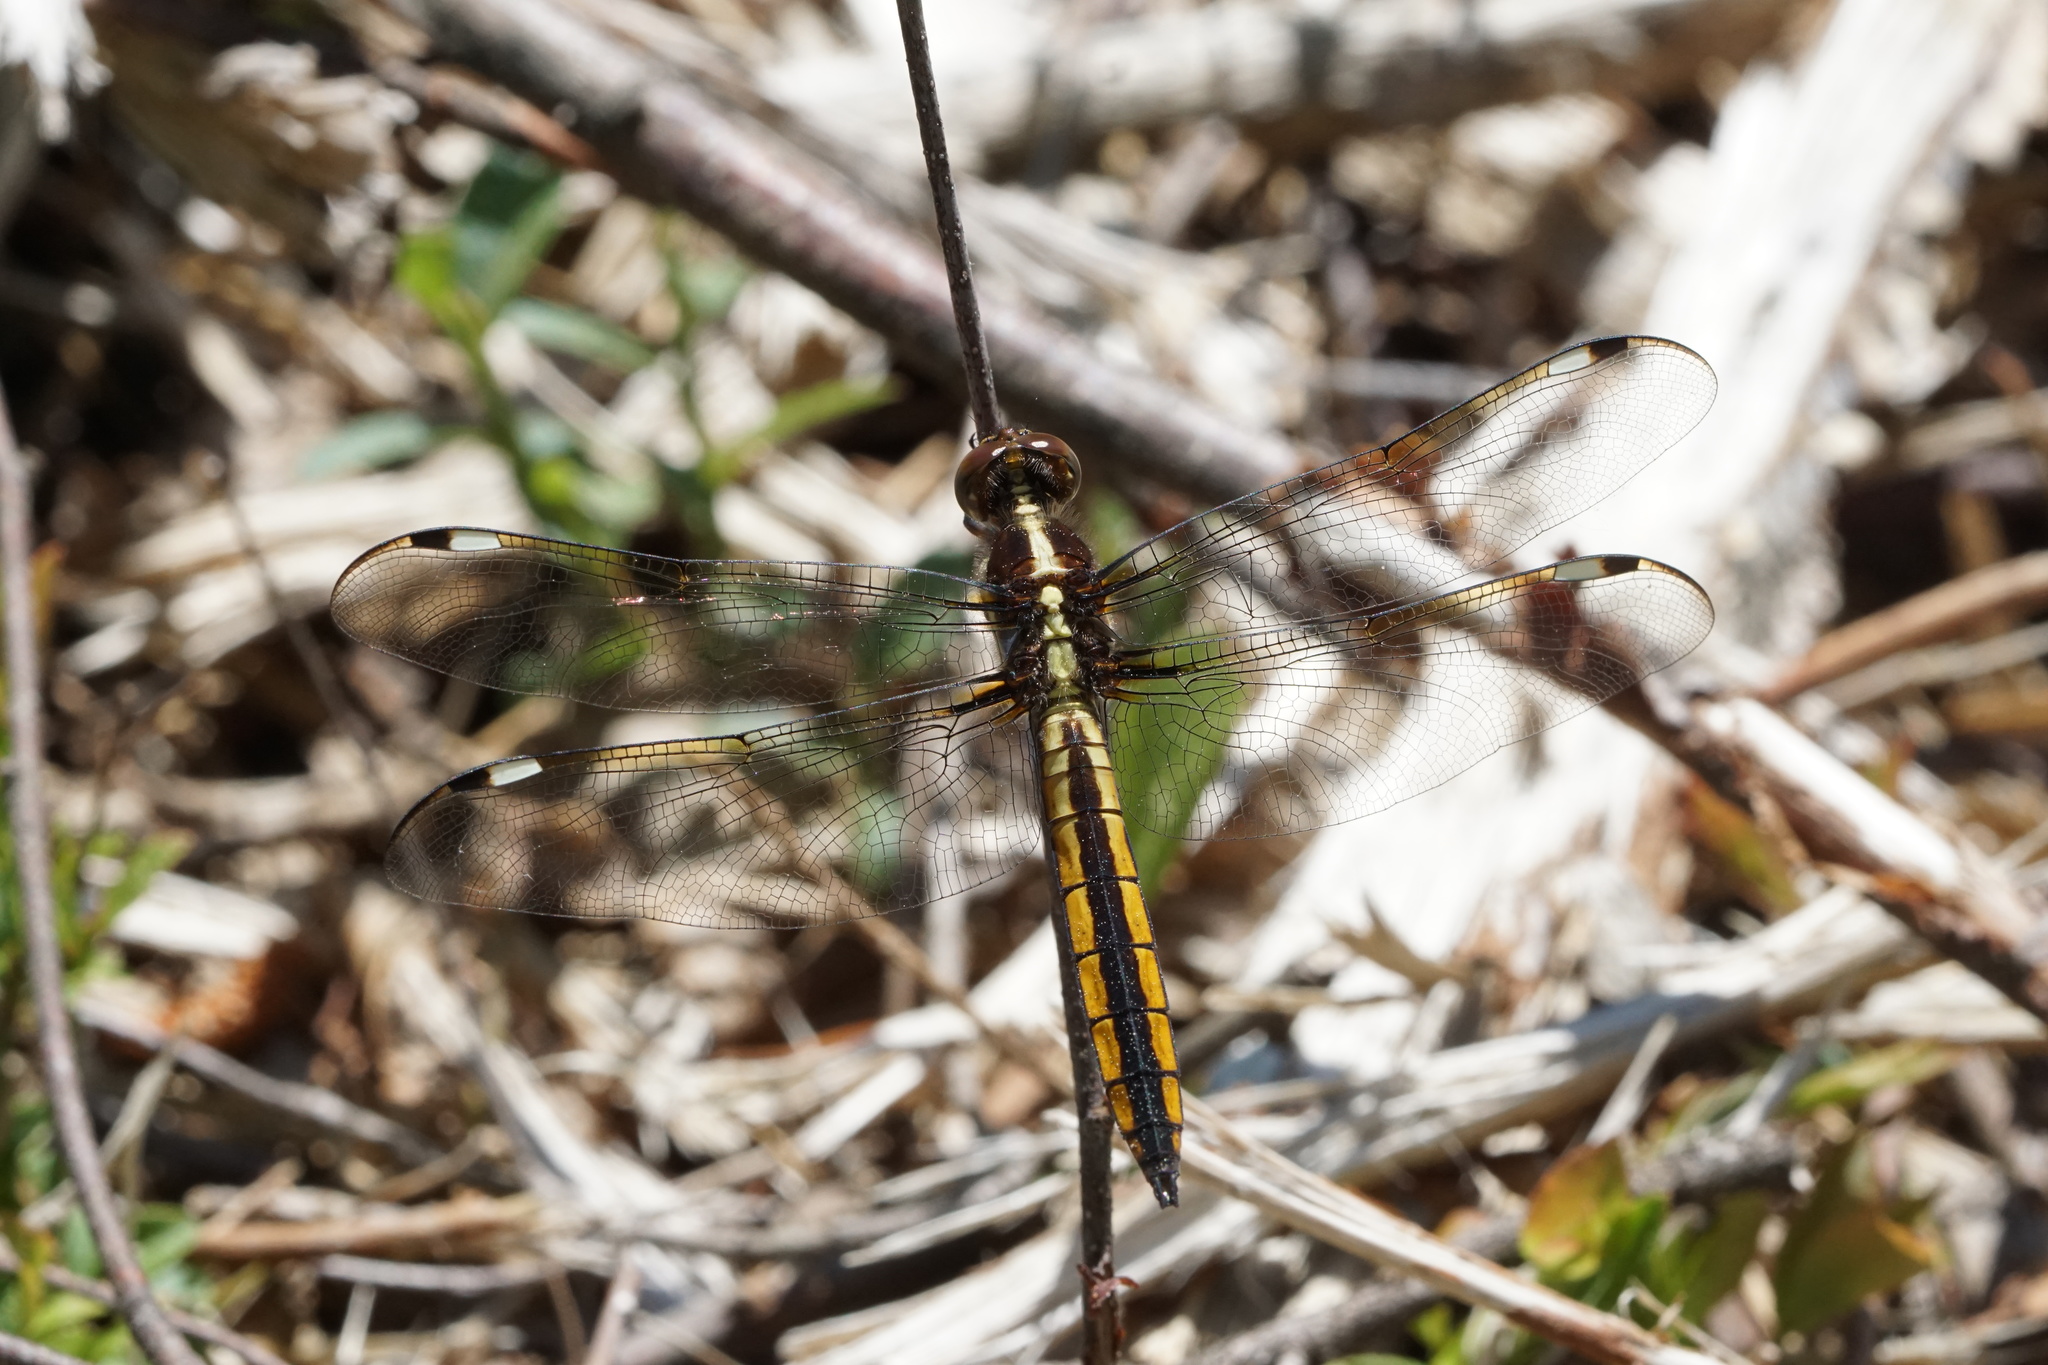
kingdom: Animalia
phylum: Arthropoda
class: Insecta
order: Odonata
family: Libellulidae
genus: Libellula
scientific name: Libellula cyanea
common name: Spangled skimmer
